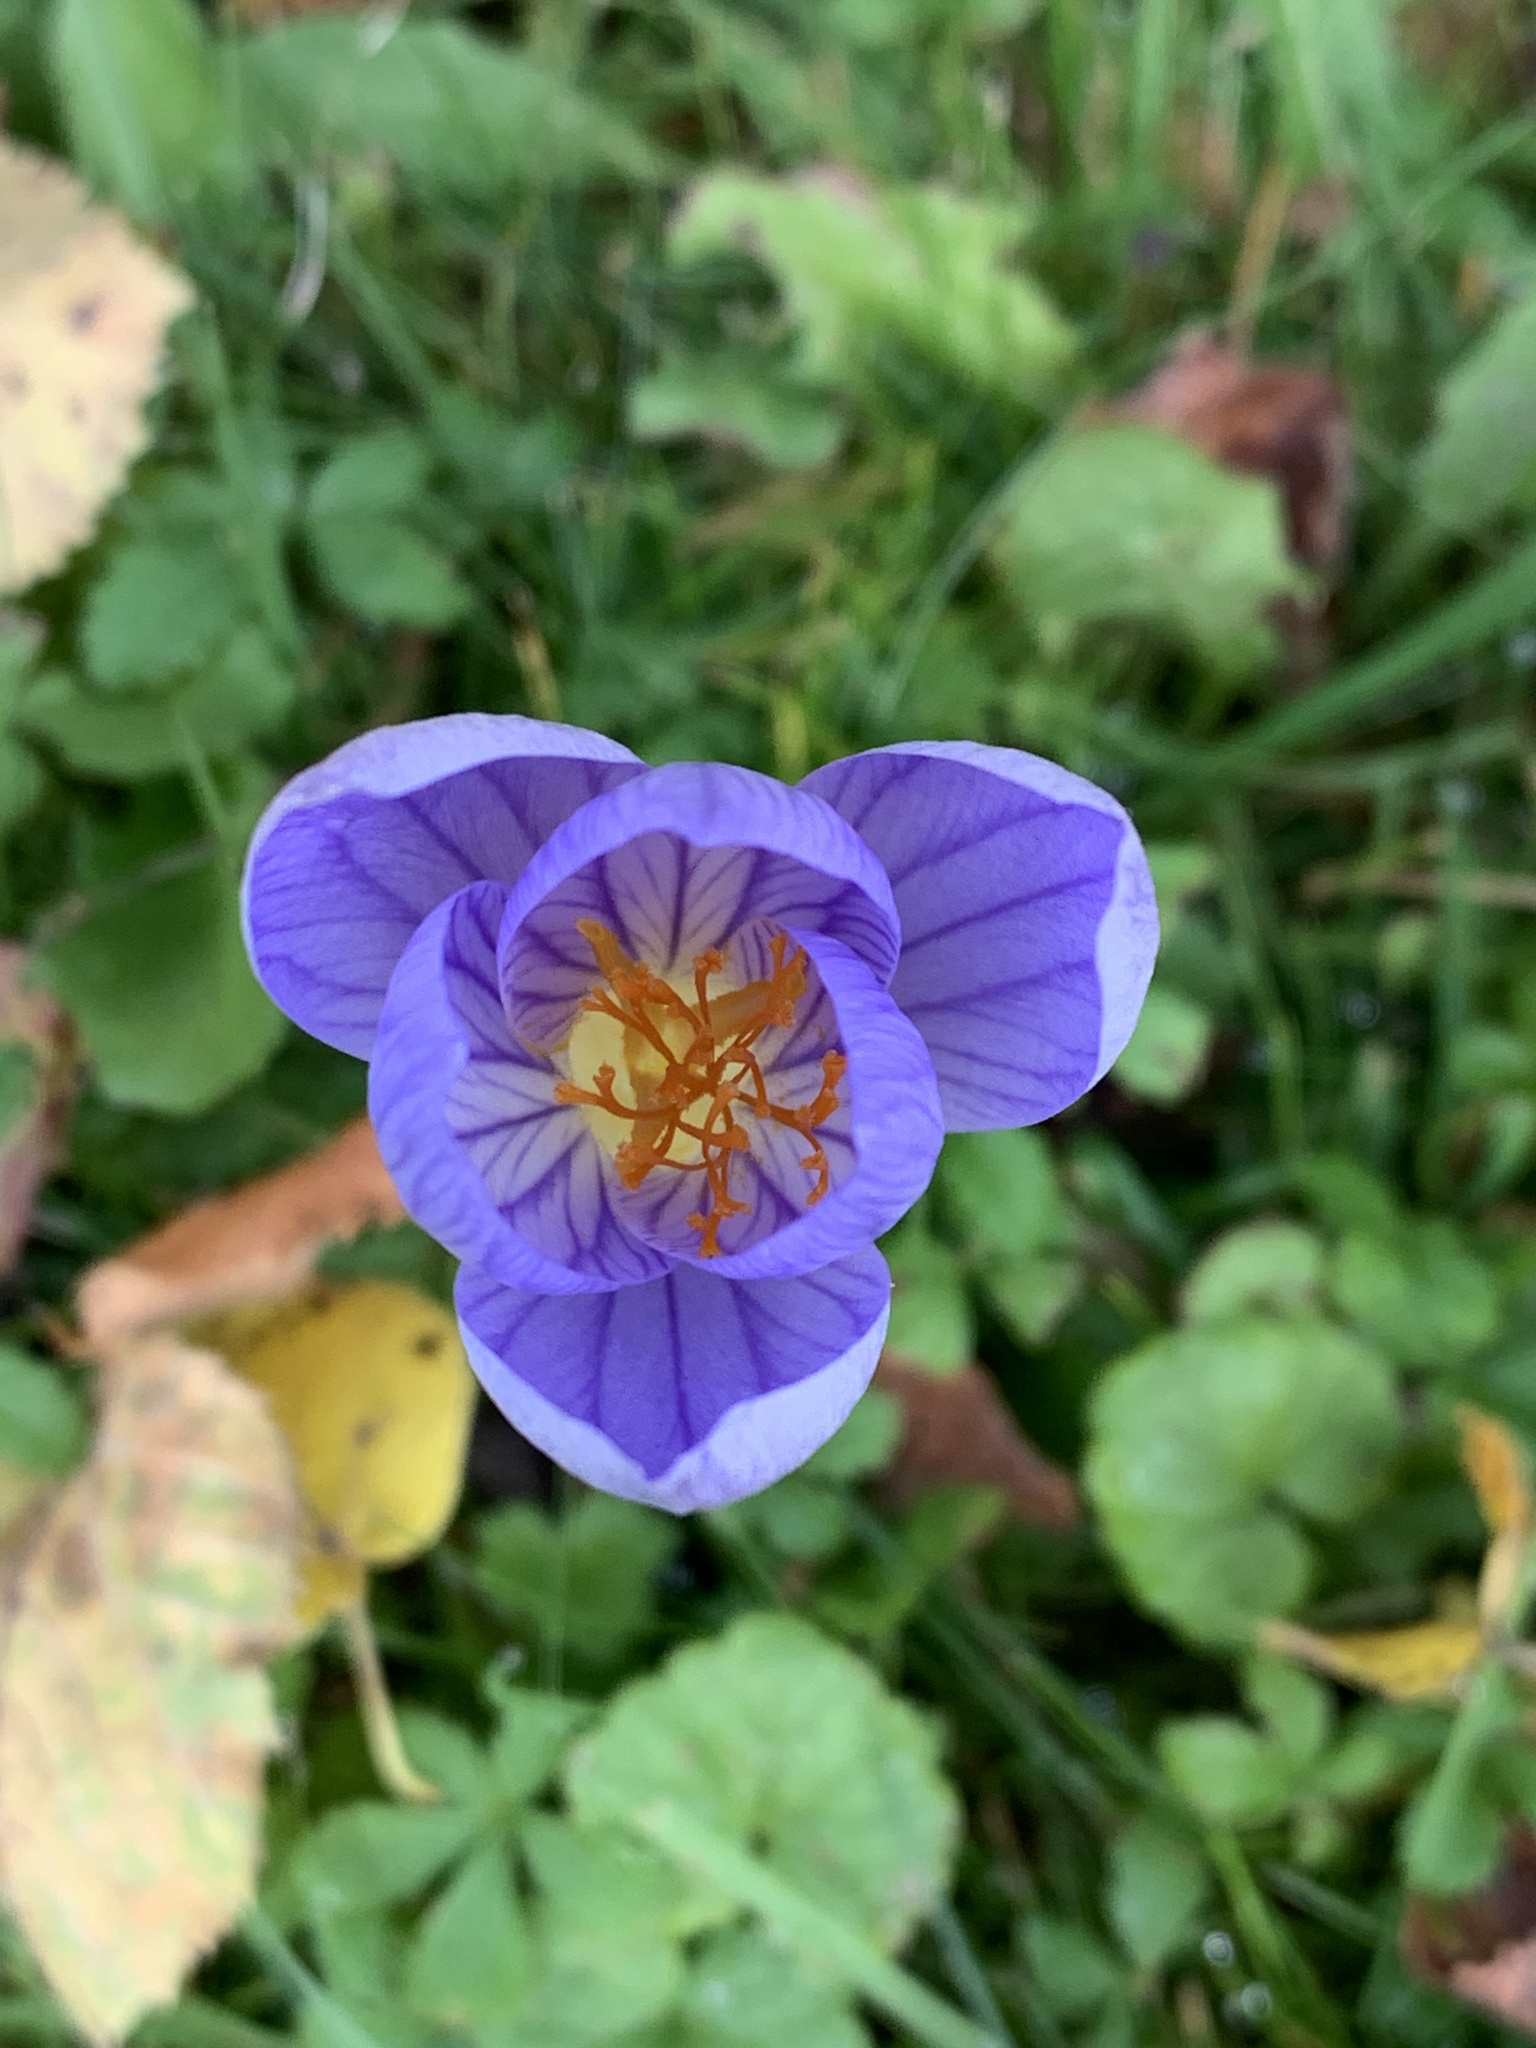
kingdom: Plantae
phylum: Tracheophyta
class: Liliopsida
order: Asparagales
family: Iridaceae
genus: Crocus
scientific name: Crocus speciosus
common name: Bieberstein's crocus
